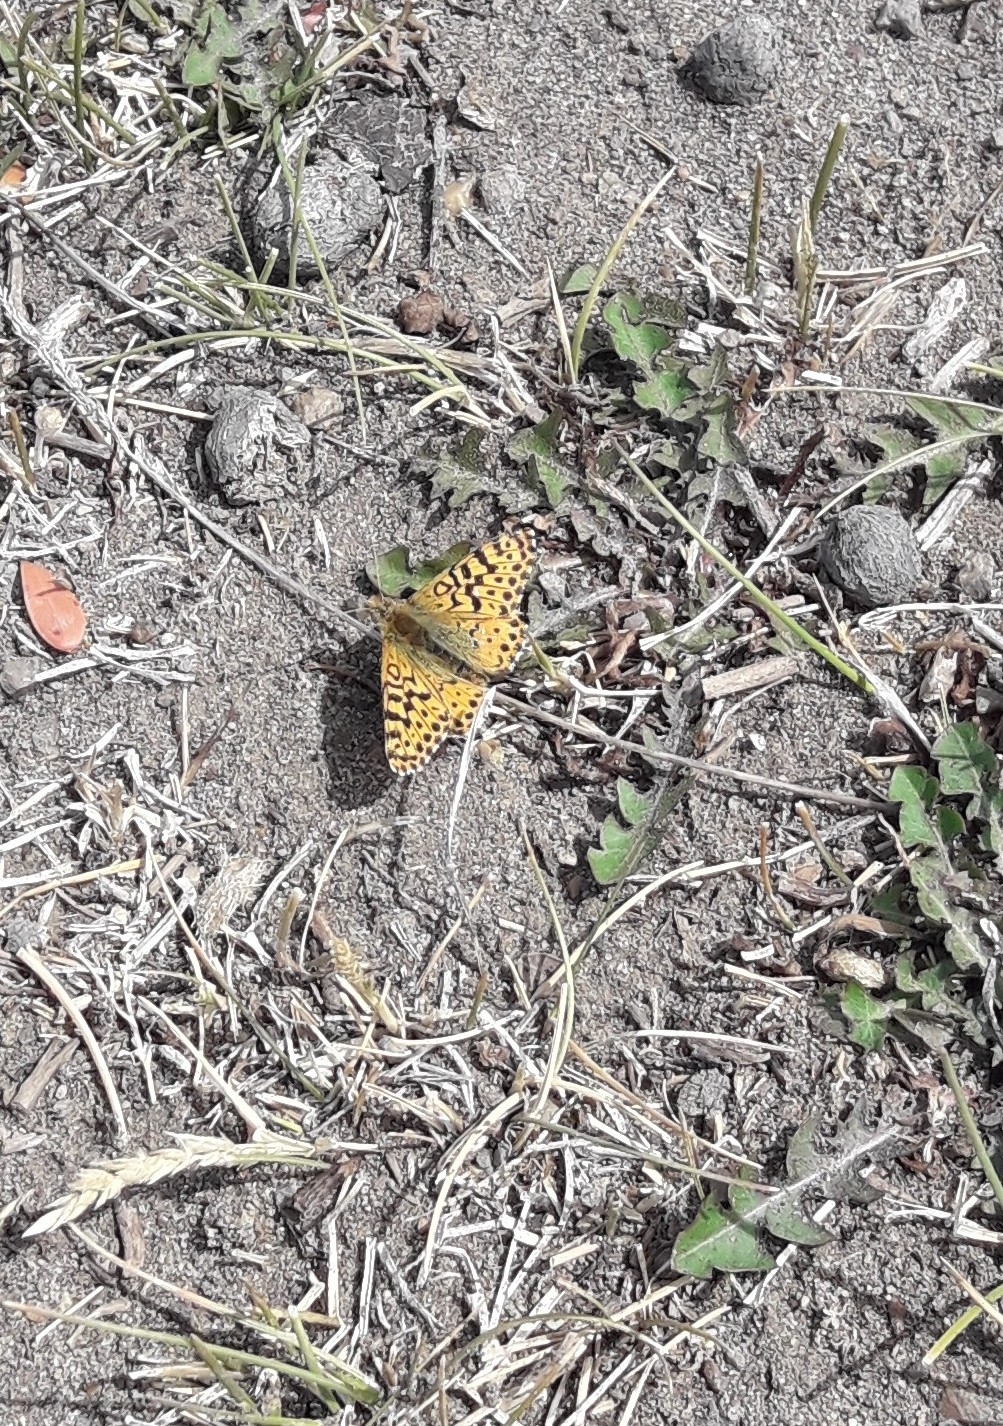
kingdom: Animalia
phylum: Arthropoda
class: Insecta
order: Lepidoptera
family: Nymphalidae
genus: Issoria
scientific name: Issoria Yramea lathonoides
